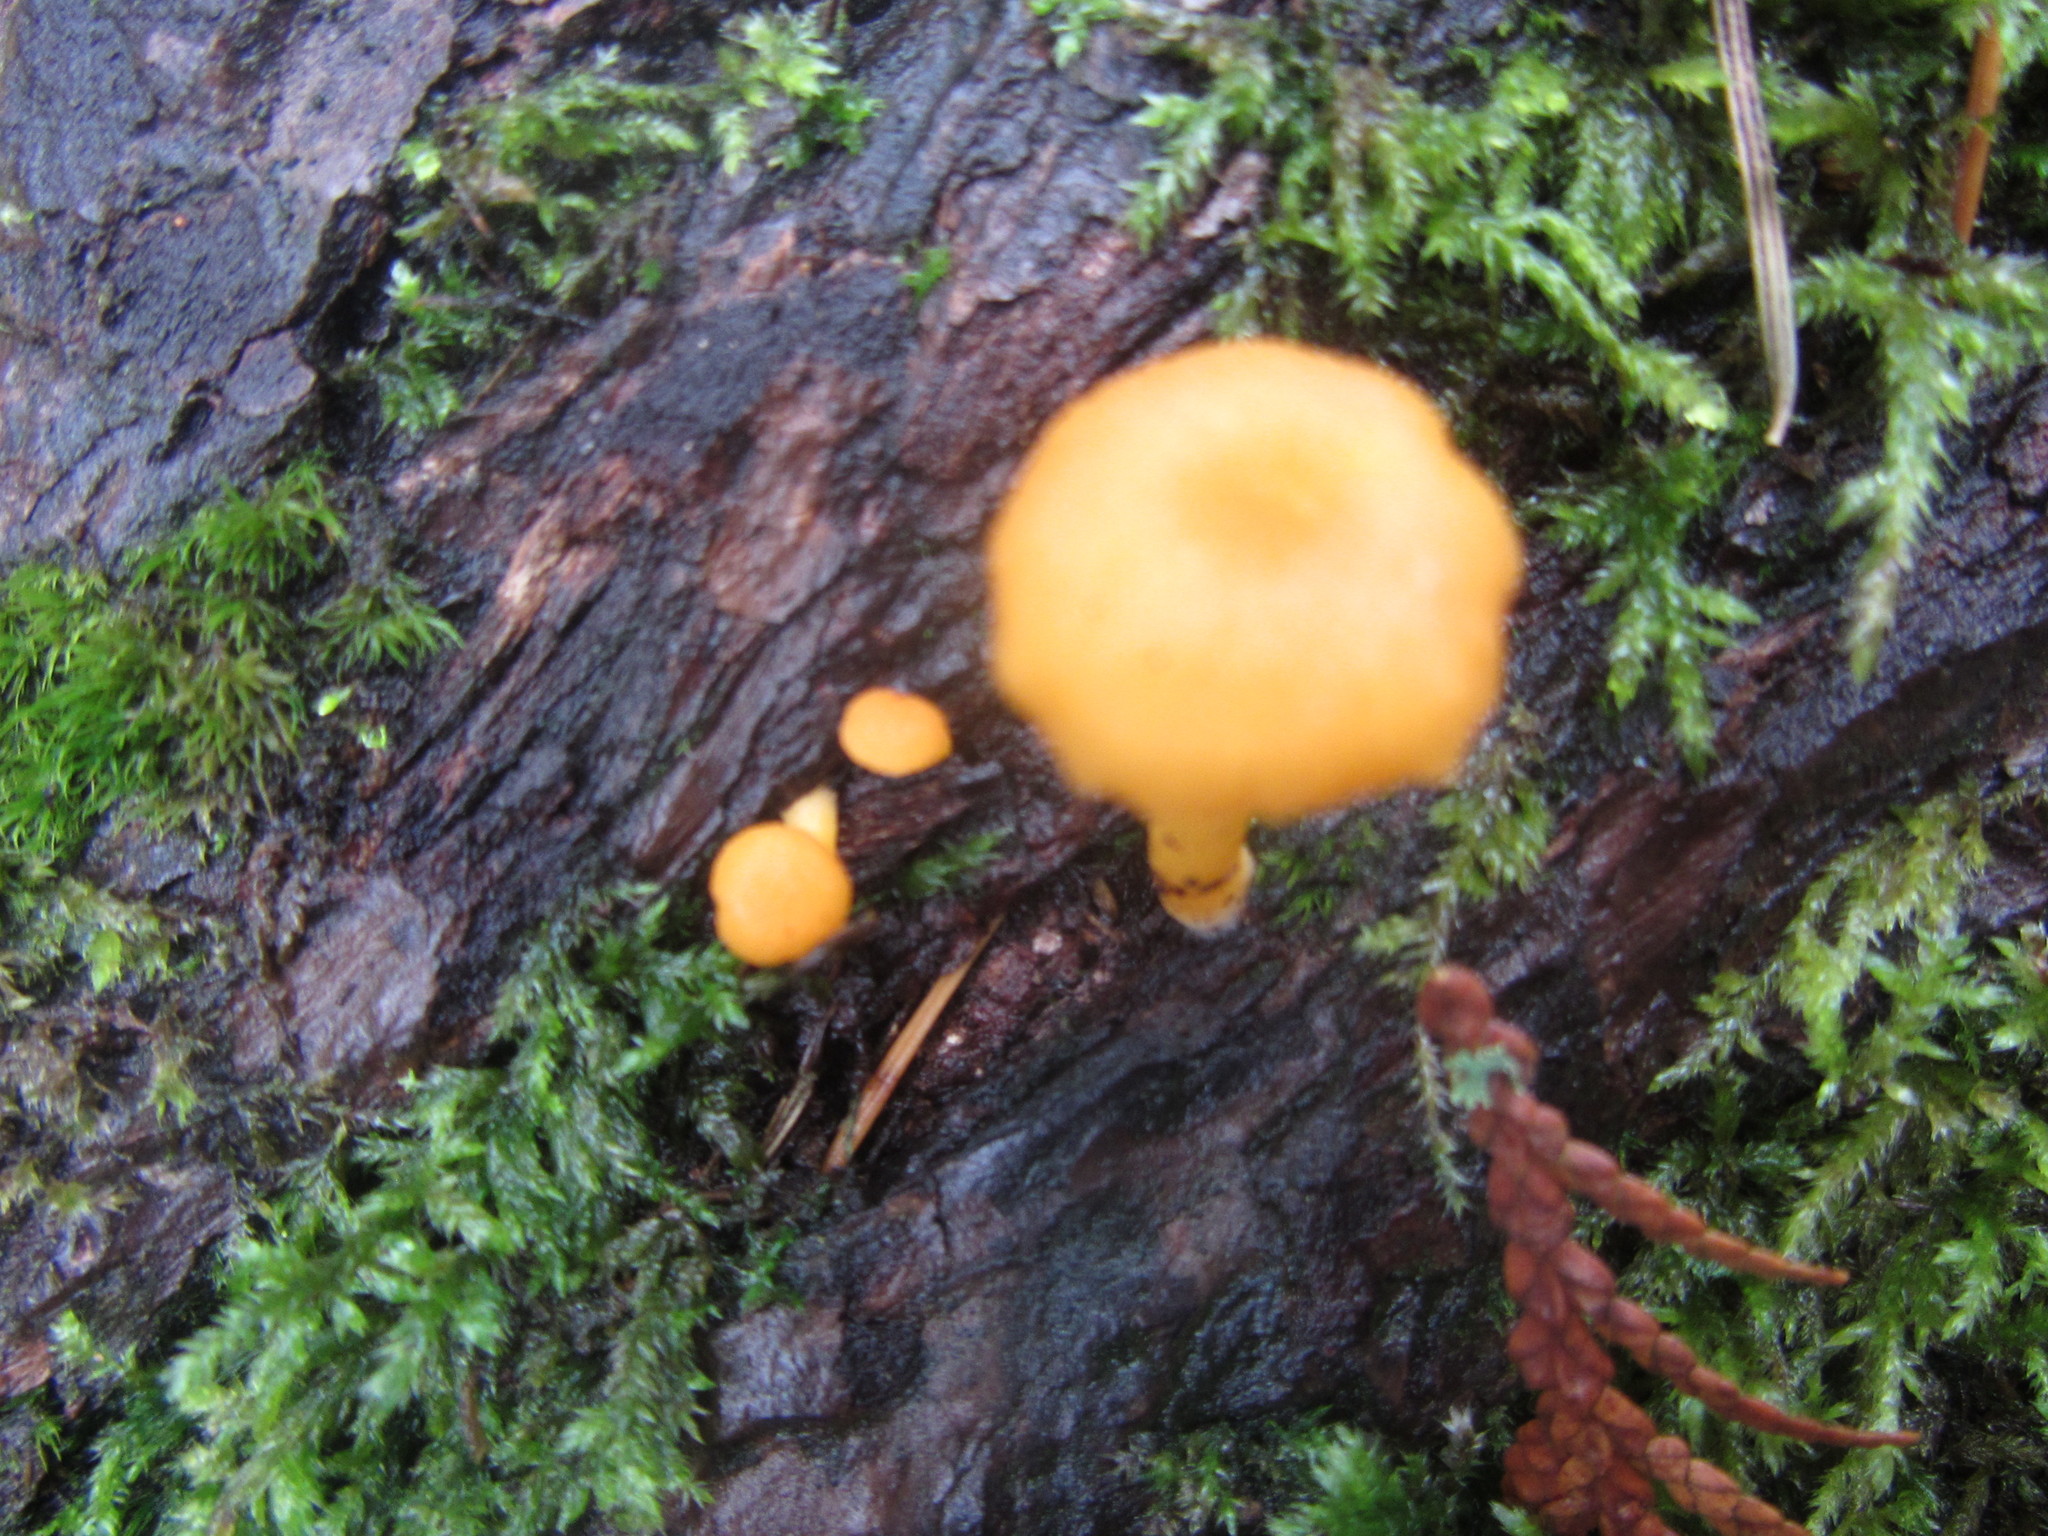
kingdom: Fungi
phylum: Basidiomycota
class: Agaricomycetes
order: Agaricales
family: Hygrophoraceae
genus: Chrysomphalina
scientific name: Chrysomphalina aurantiaca
